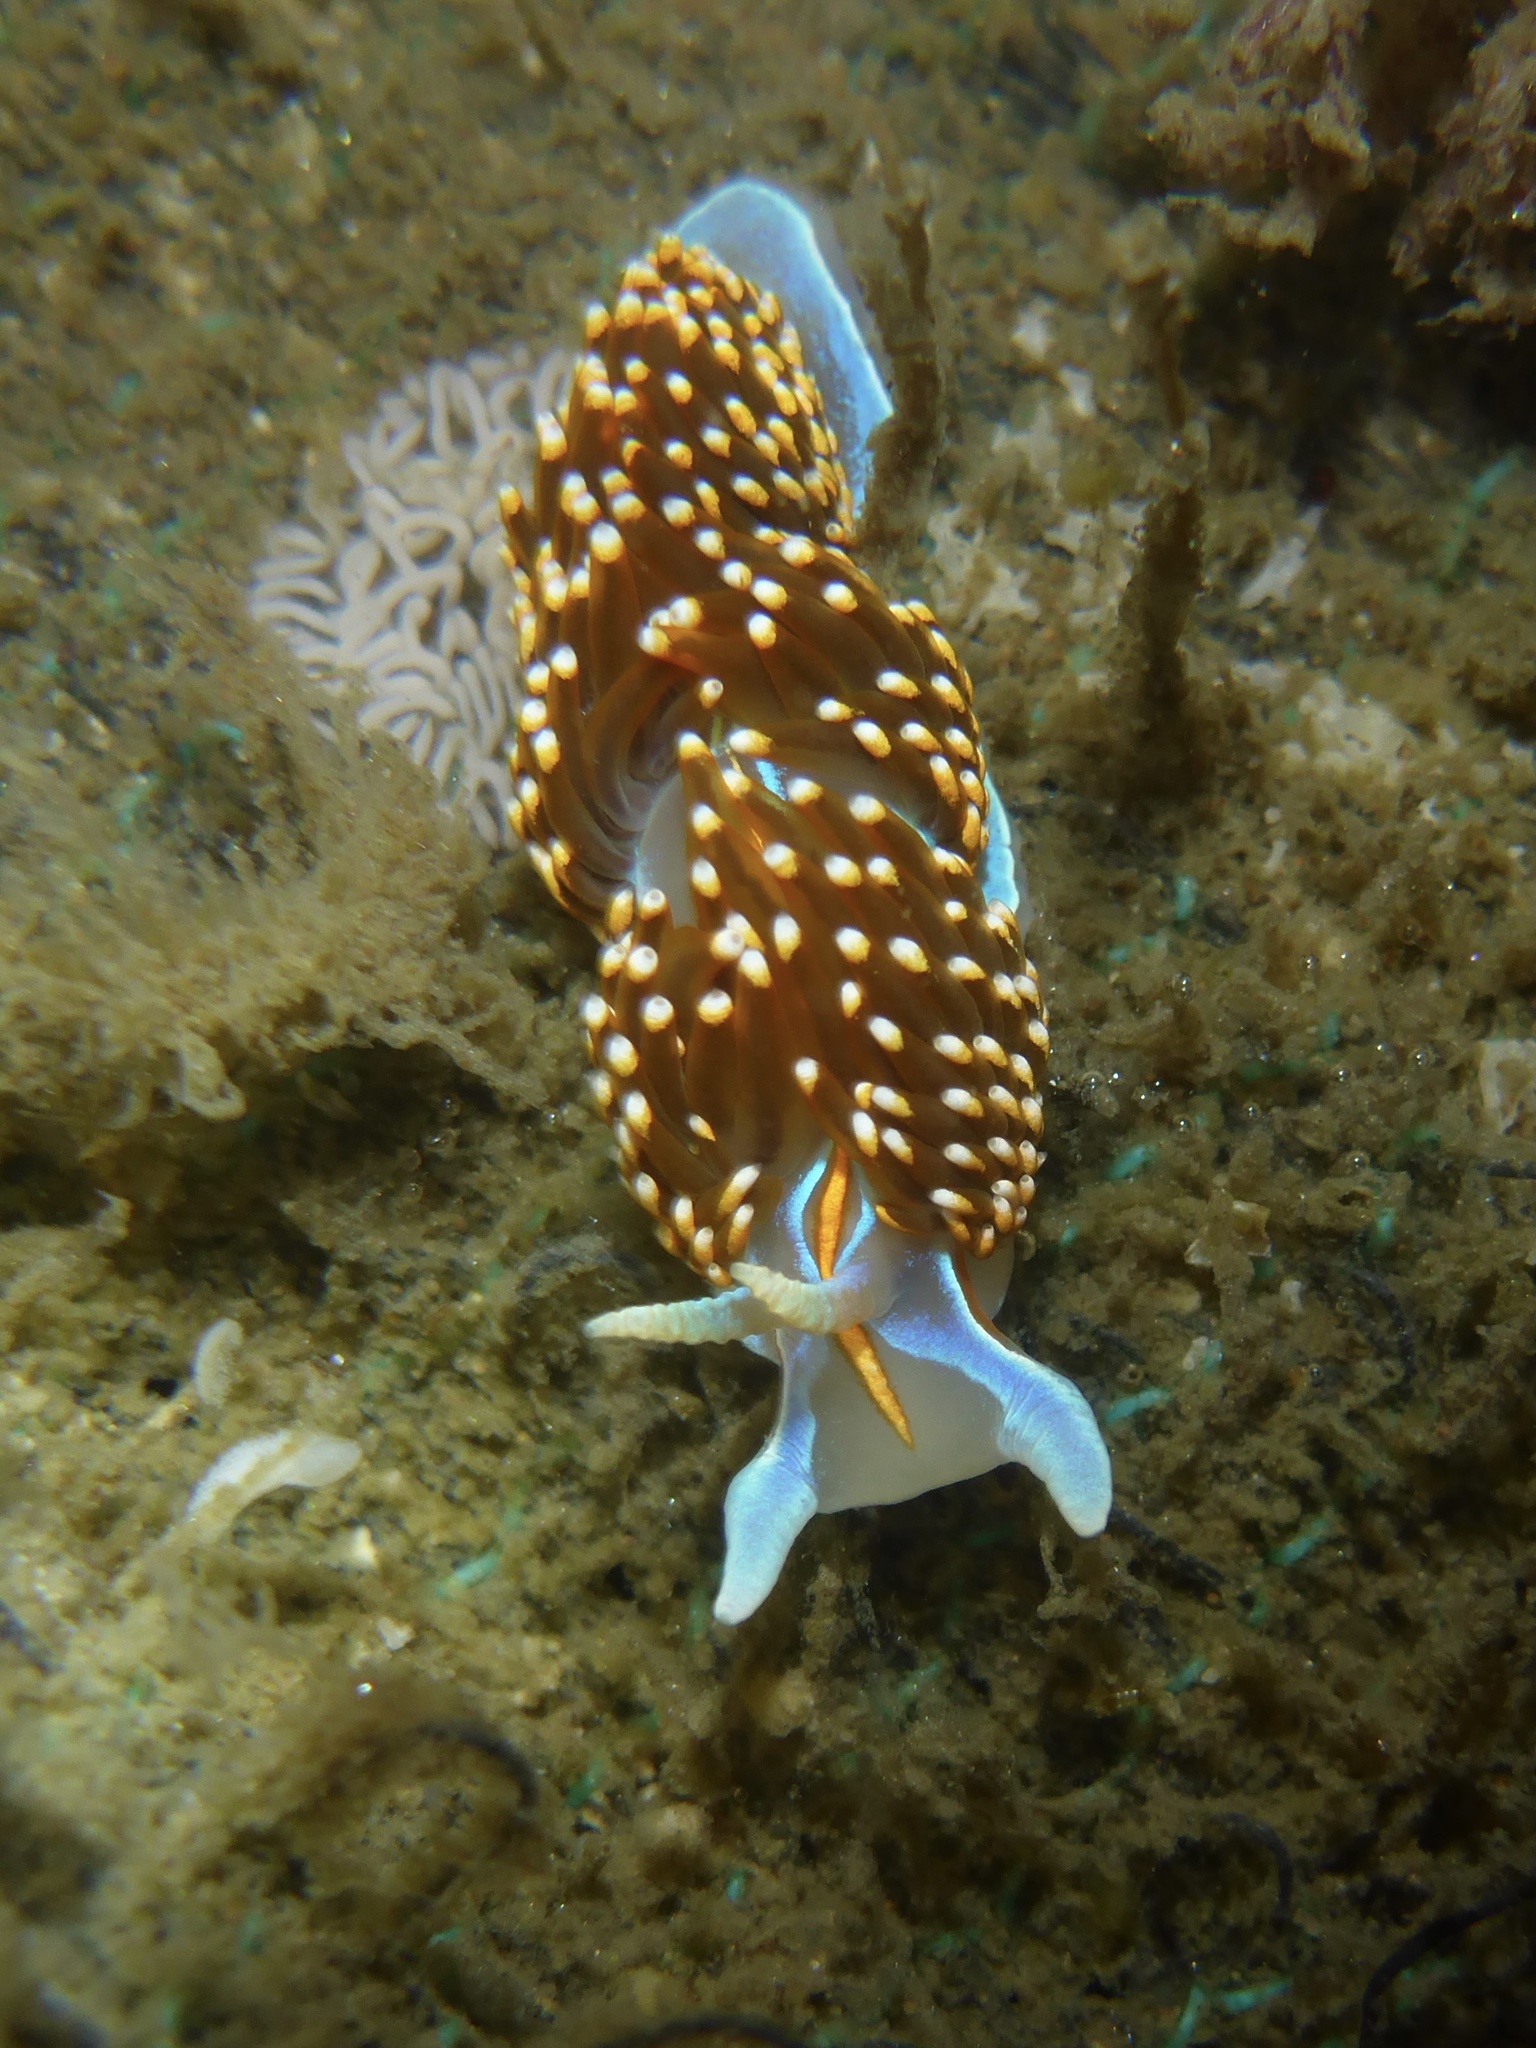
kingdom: Animalia
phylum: Mollusca
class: Gastropoda
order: Nudibranchia
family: Myrrhinidae
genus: Hermissenda
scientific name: Hermissenda opalescens
